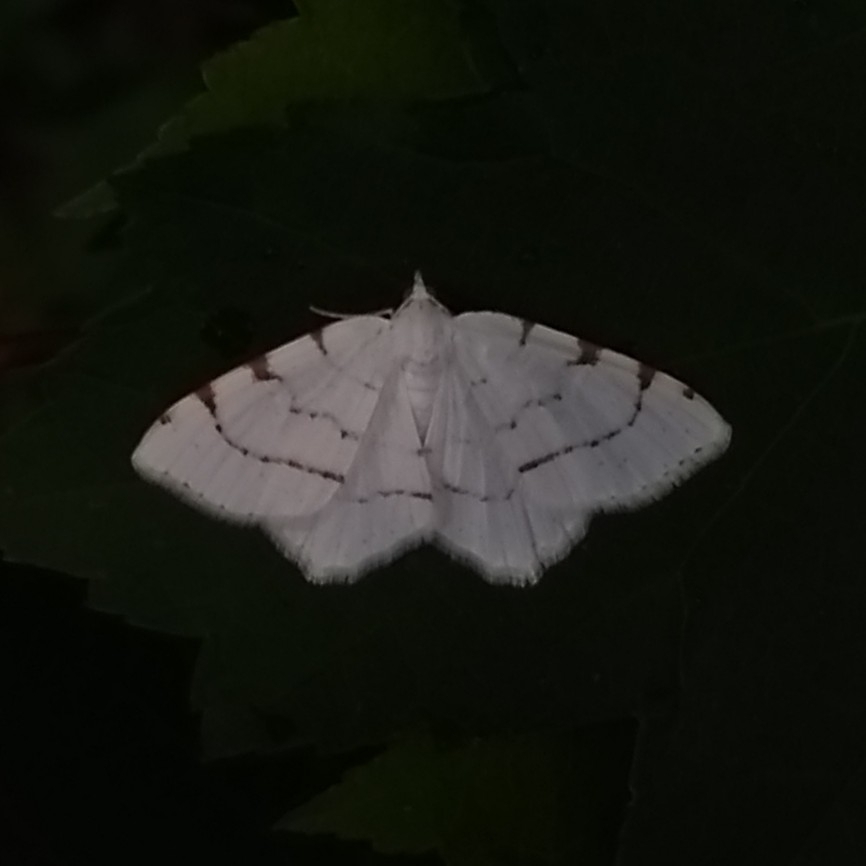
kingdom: Animalia
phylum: Arthropoda
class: Insecta
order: Lepidoptera
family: Geometridae
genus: Macaria
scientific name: Macaria pustularia
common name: Lesser maple spanworm moth
